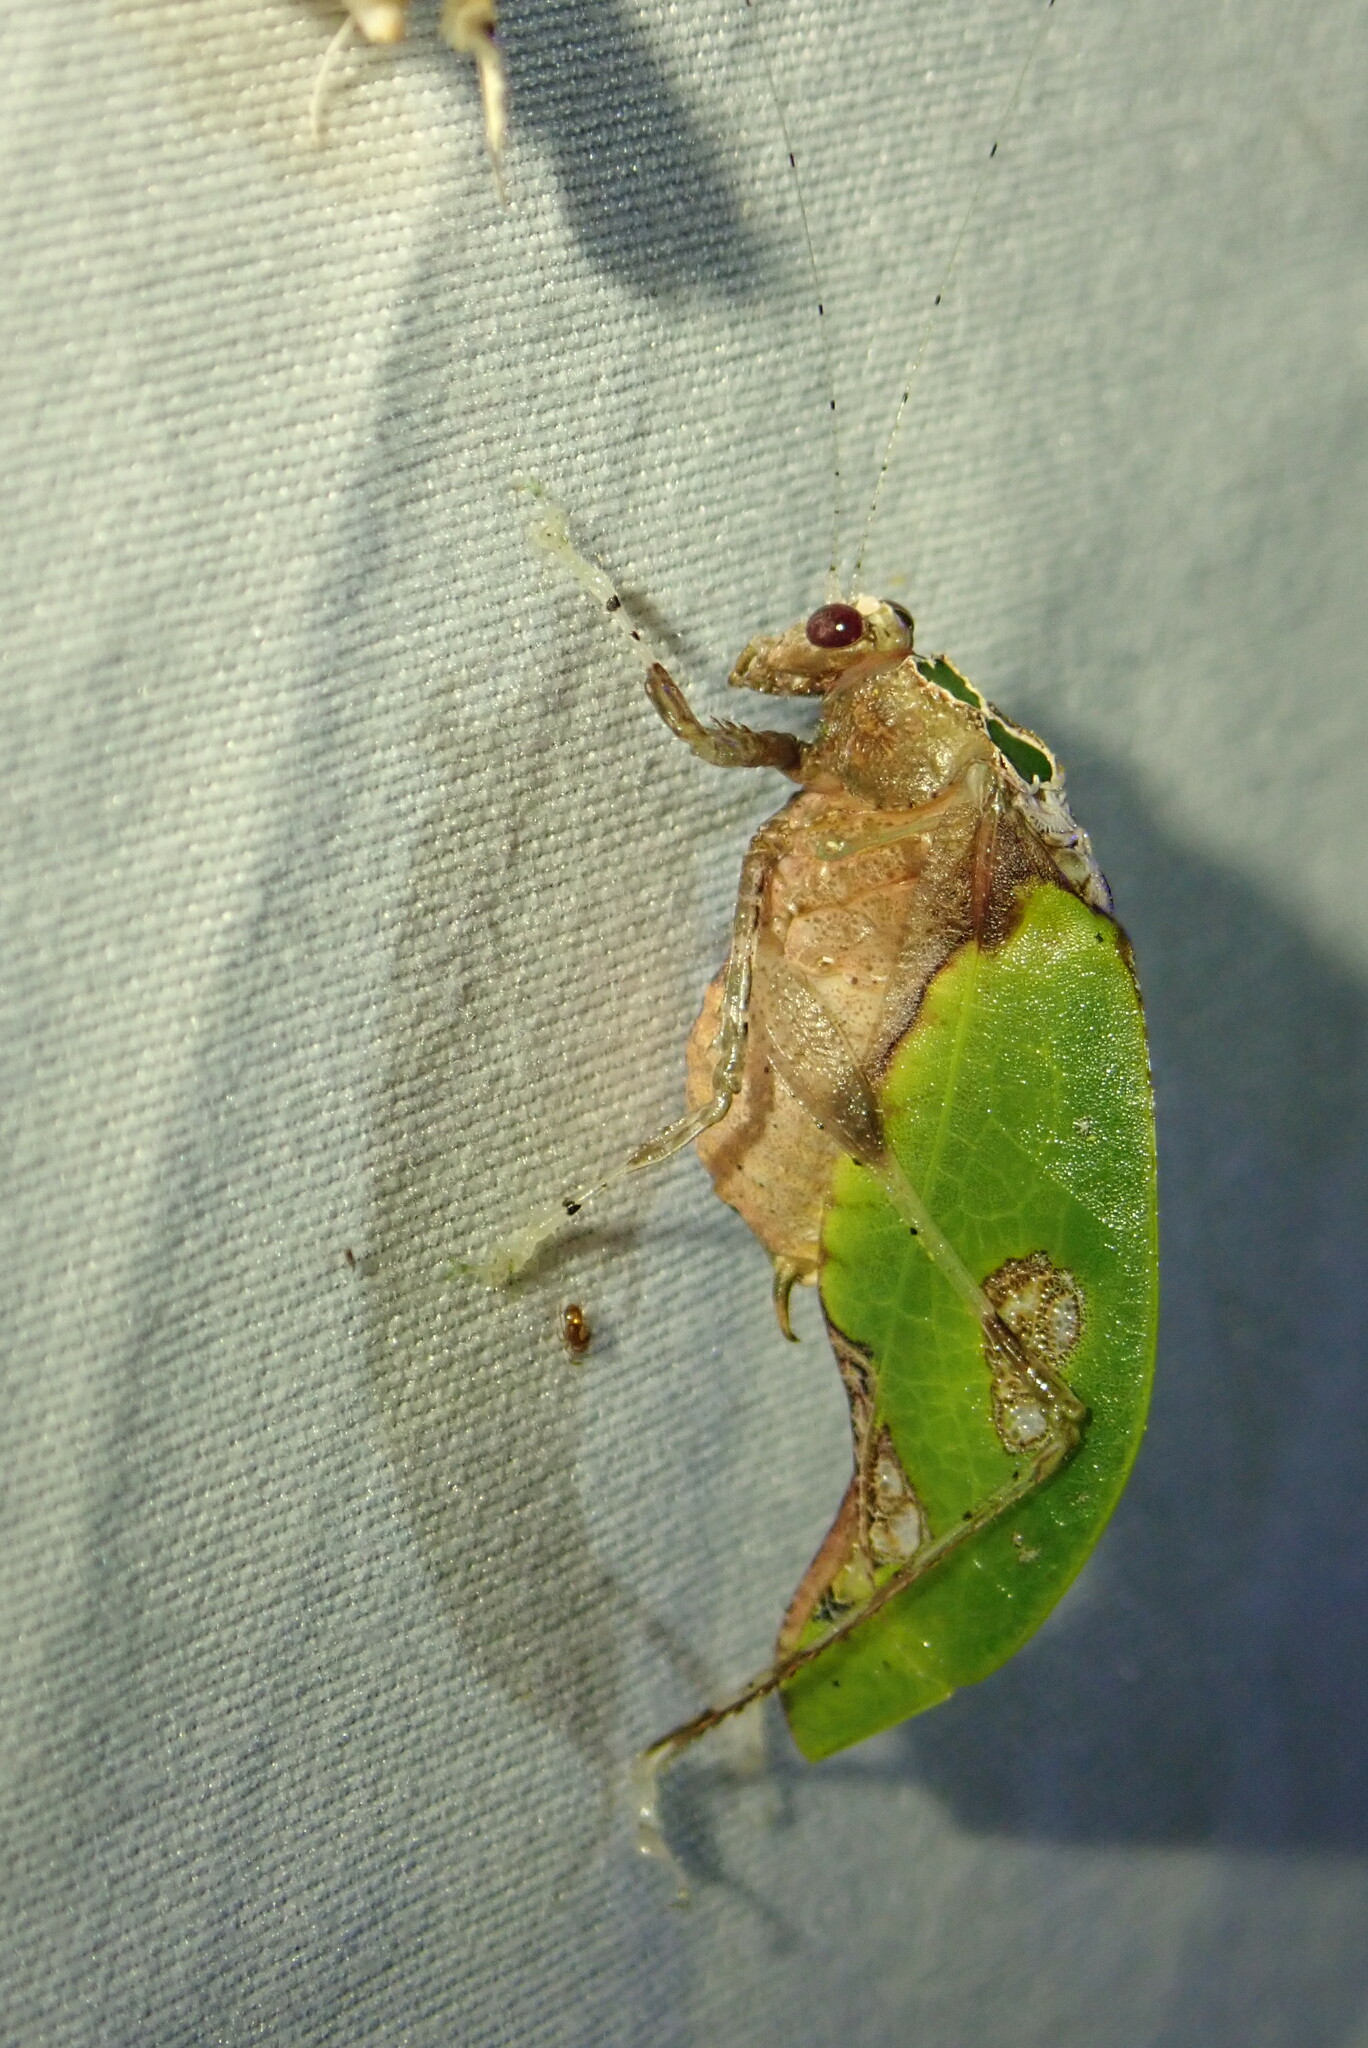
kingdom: Animalia
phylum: Arthropoda
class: Insecta
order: Orthoptera
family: Tettigoniidae
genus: Pycnopalpa
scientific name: Pycnopalpa bicordata
